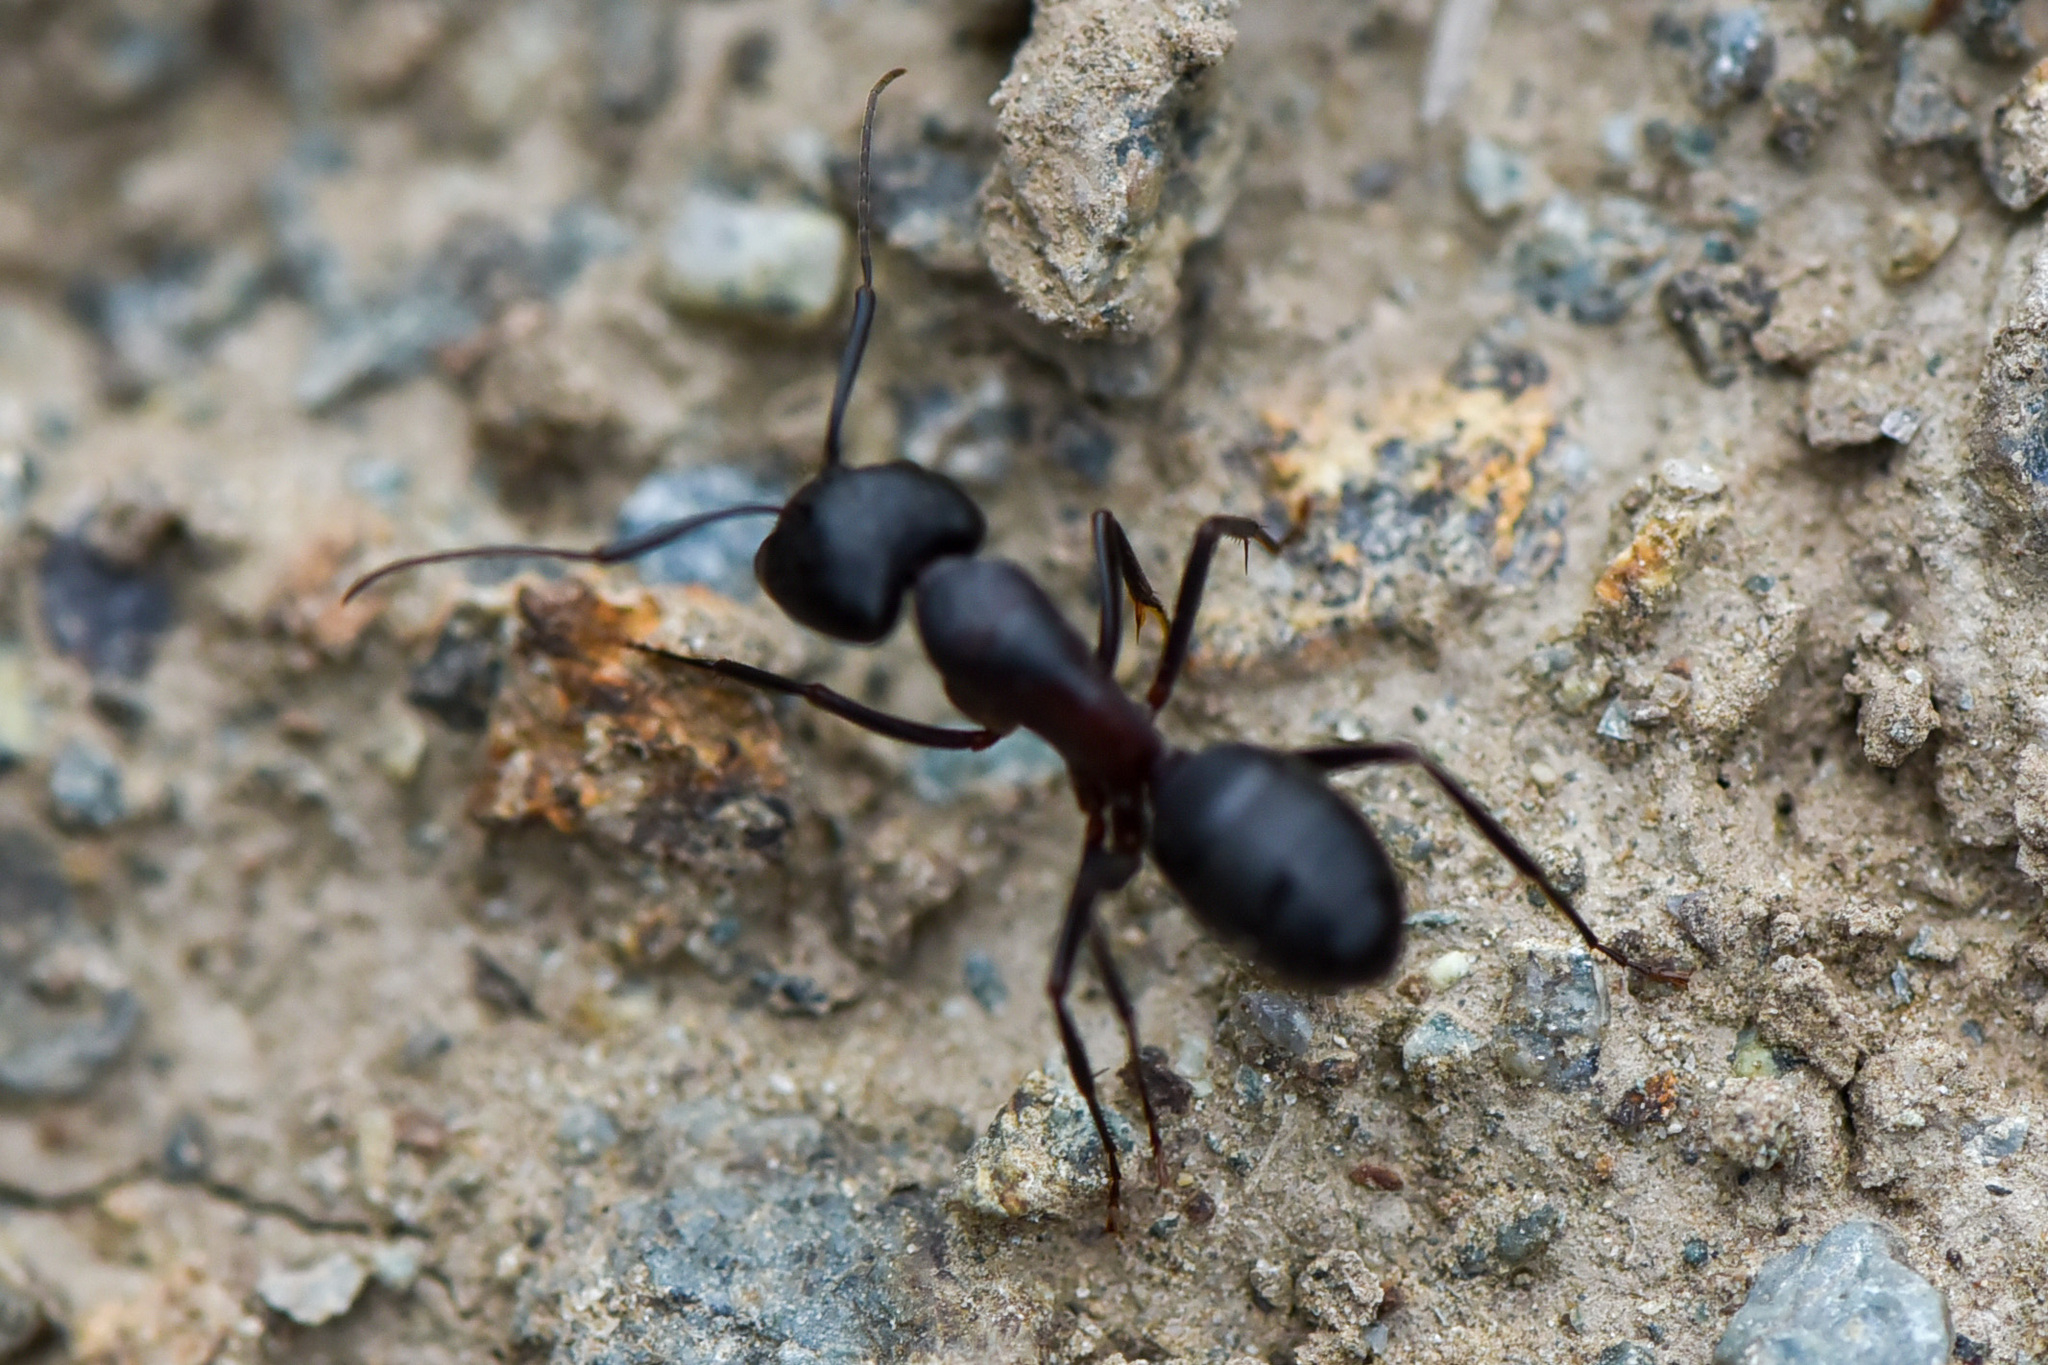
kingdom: Animalia
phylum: Arthropoda
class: Insecta
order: Hymenoptera
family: Formicidae
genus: Camponotus
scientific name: Camponotus vicinus
